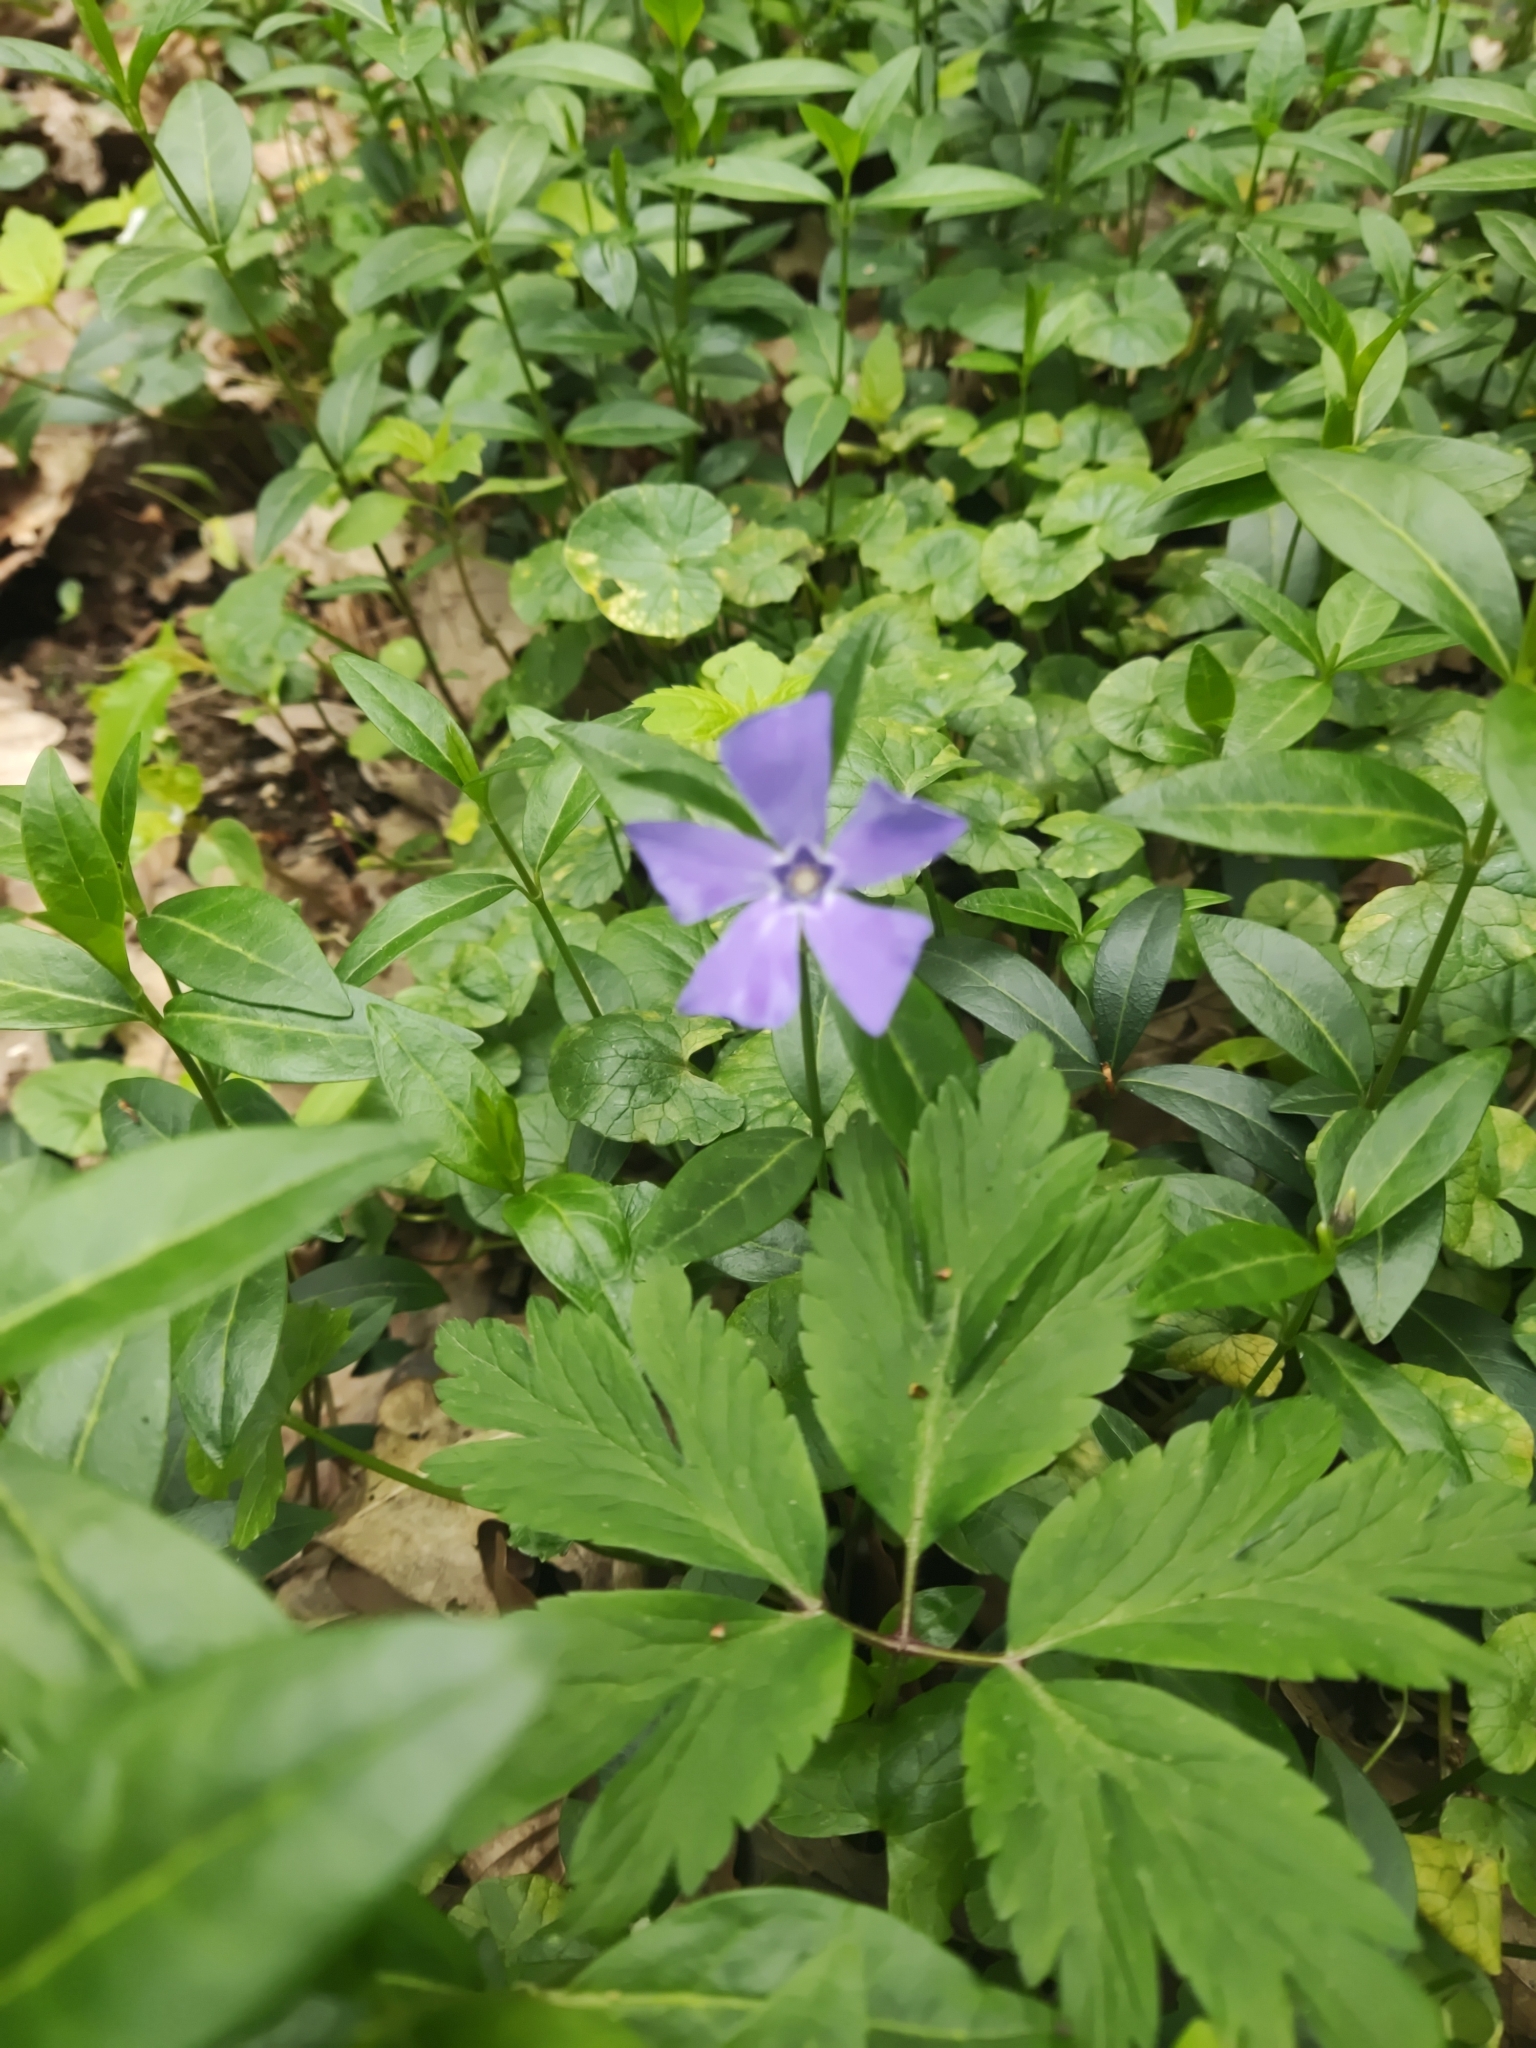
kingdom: Plantae
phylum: Tracheophyta
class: Magnoliopsida
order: Gentianales
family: Apocynaceae
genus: Vinca
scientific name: Vinca minor
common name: Lesser periwinkle
